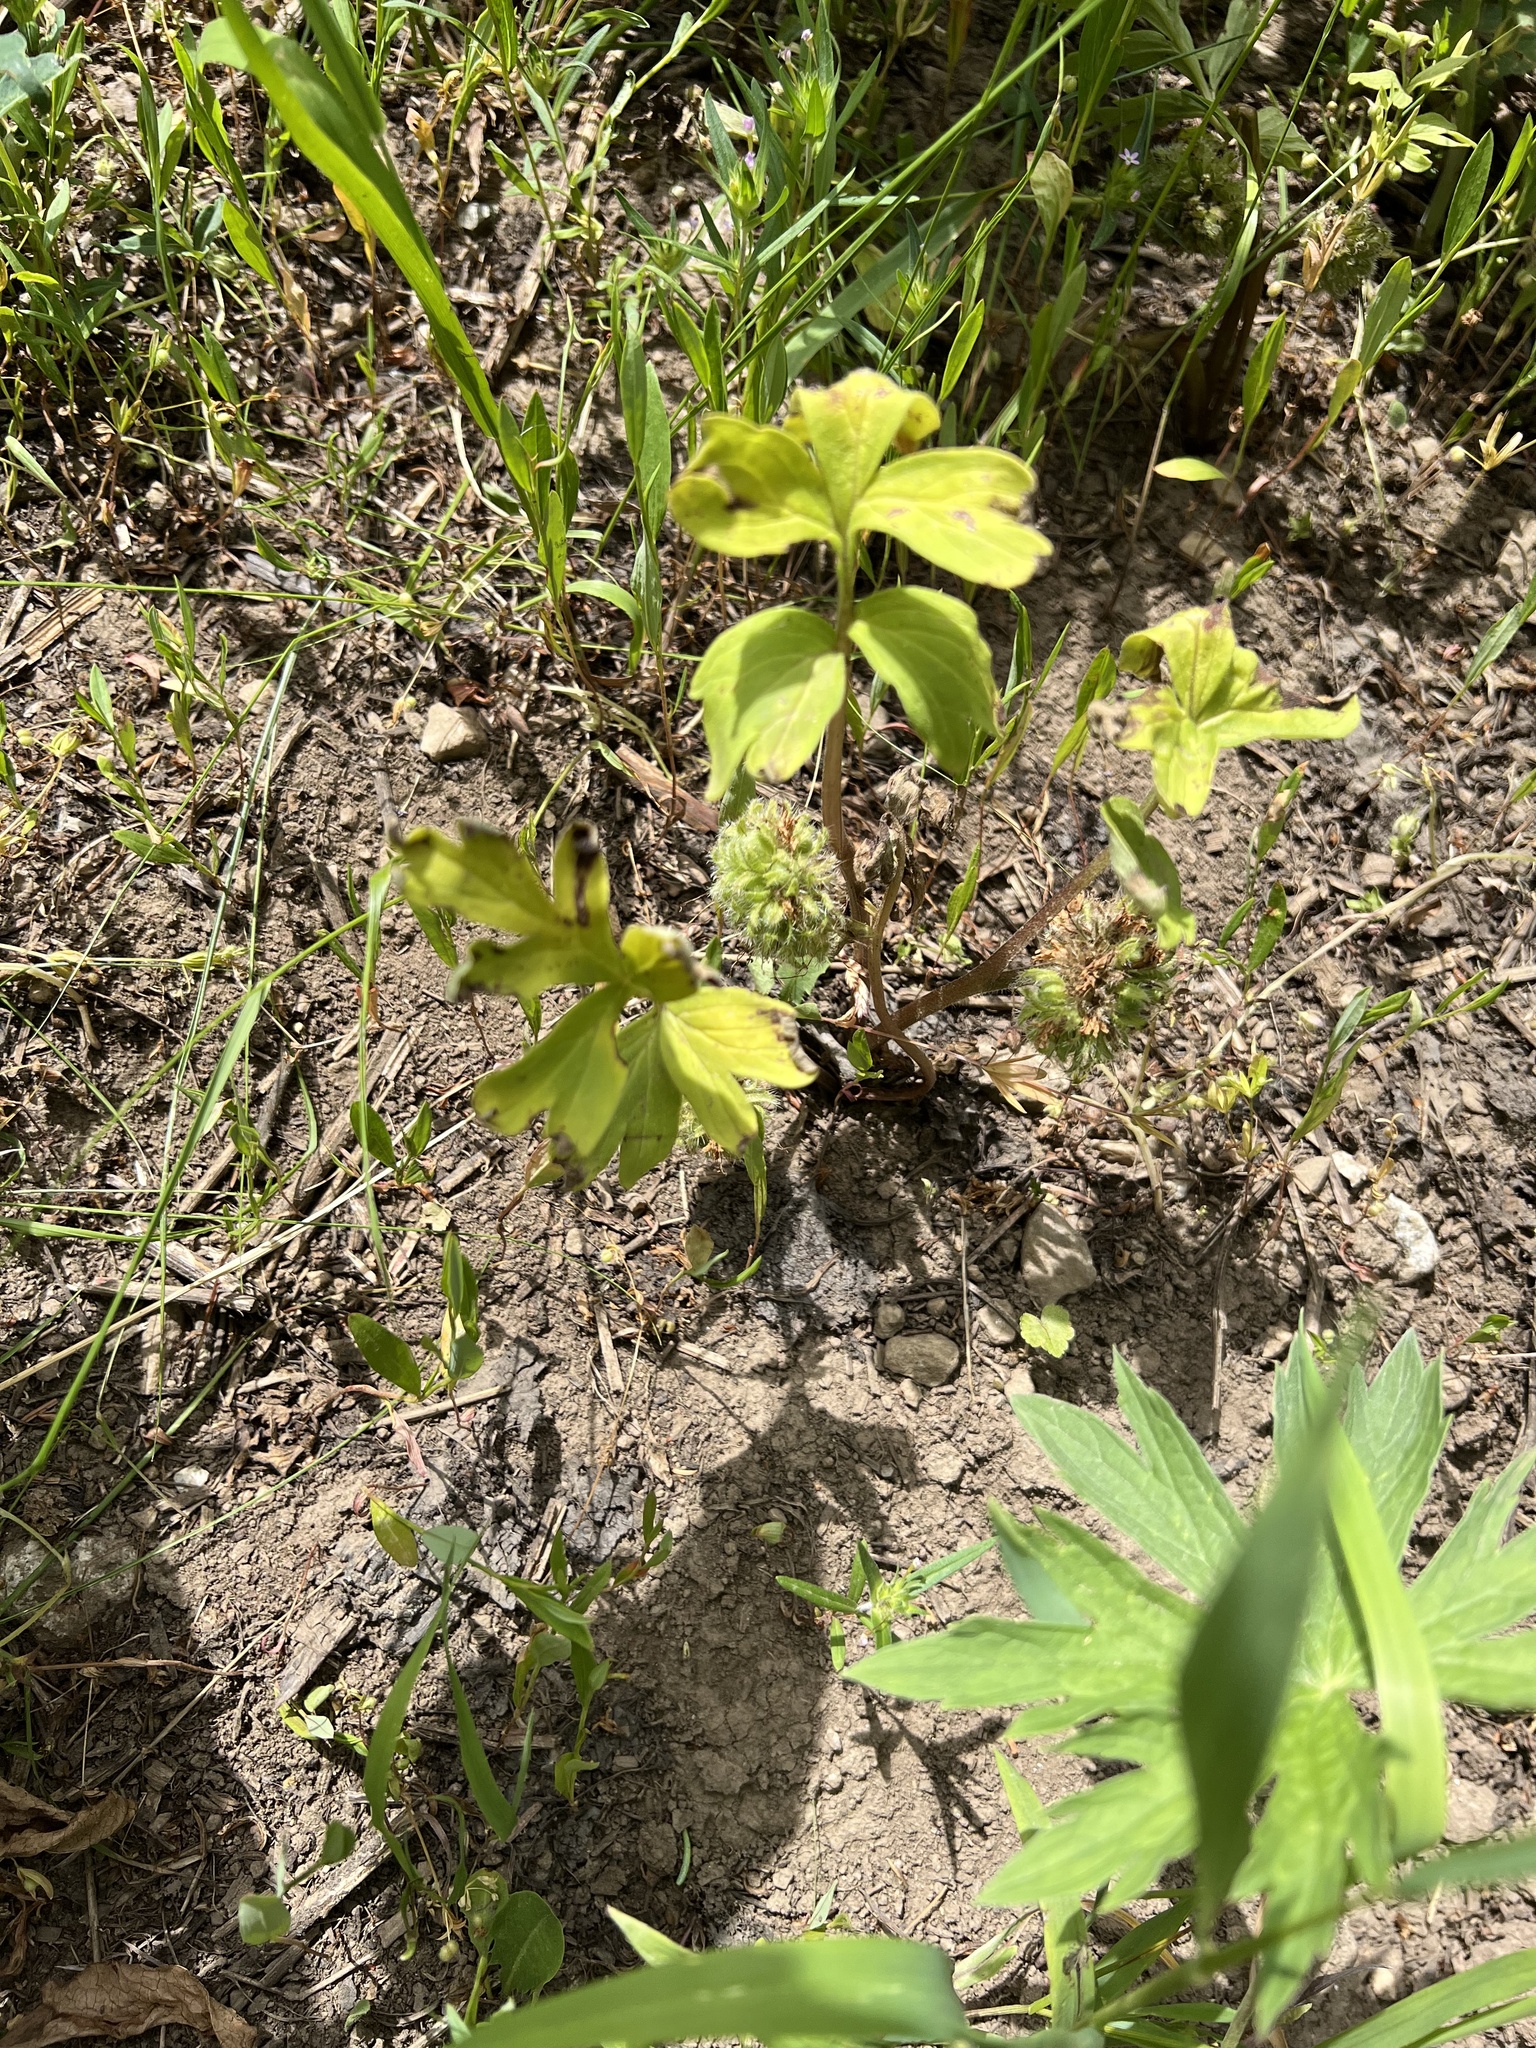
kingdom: Plantae
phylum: Tracheophyta
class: Magnoliopsida
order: Boraginales
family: Hydrophyllaceae
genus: Hydrophyllum
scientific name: Hydrophyllum capitatum
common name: Woollen-breeches
